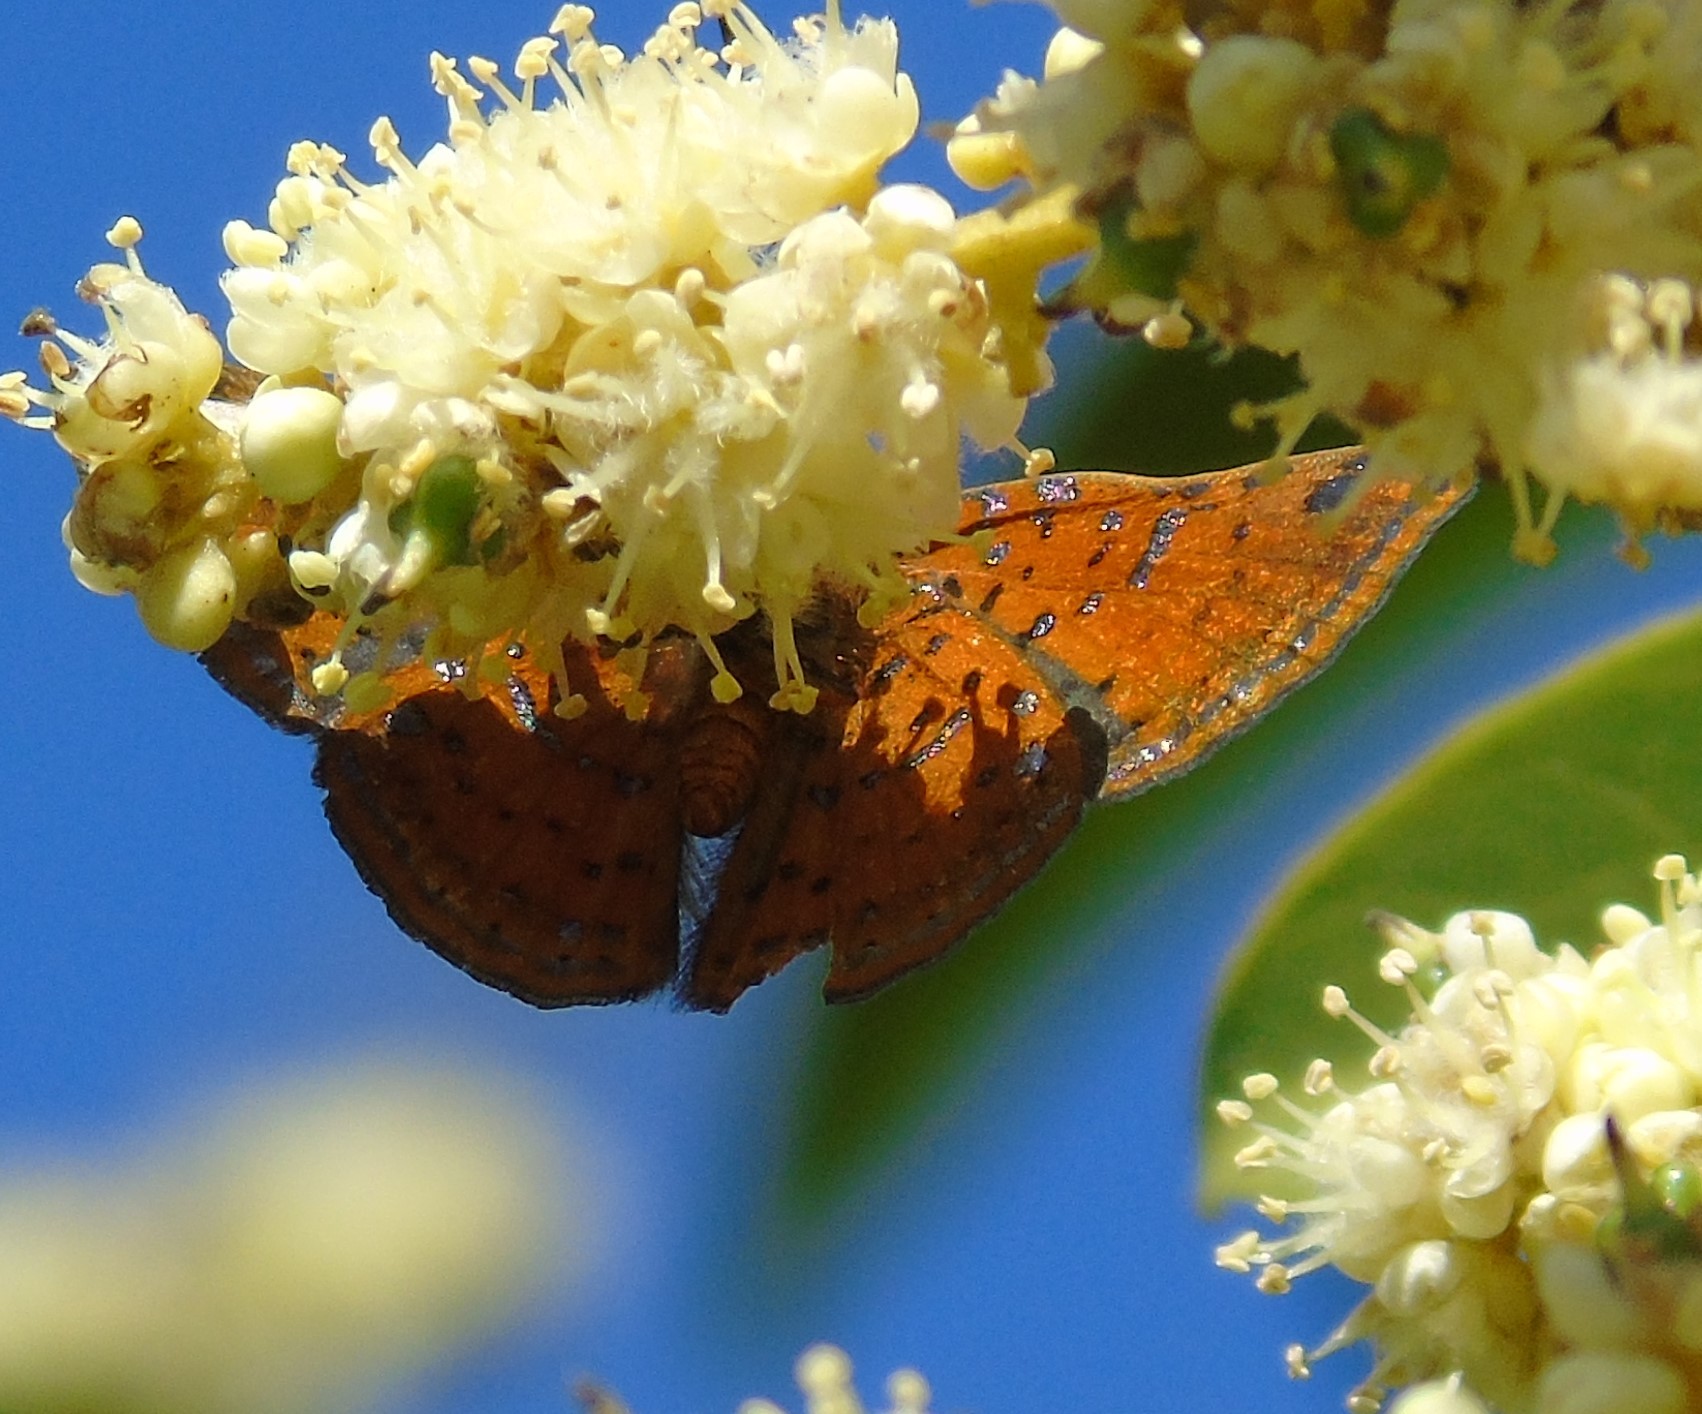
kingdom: Animalia
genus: Caria
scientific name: Caria ino
